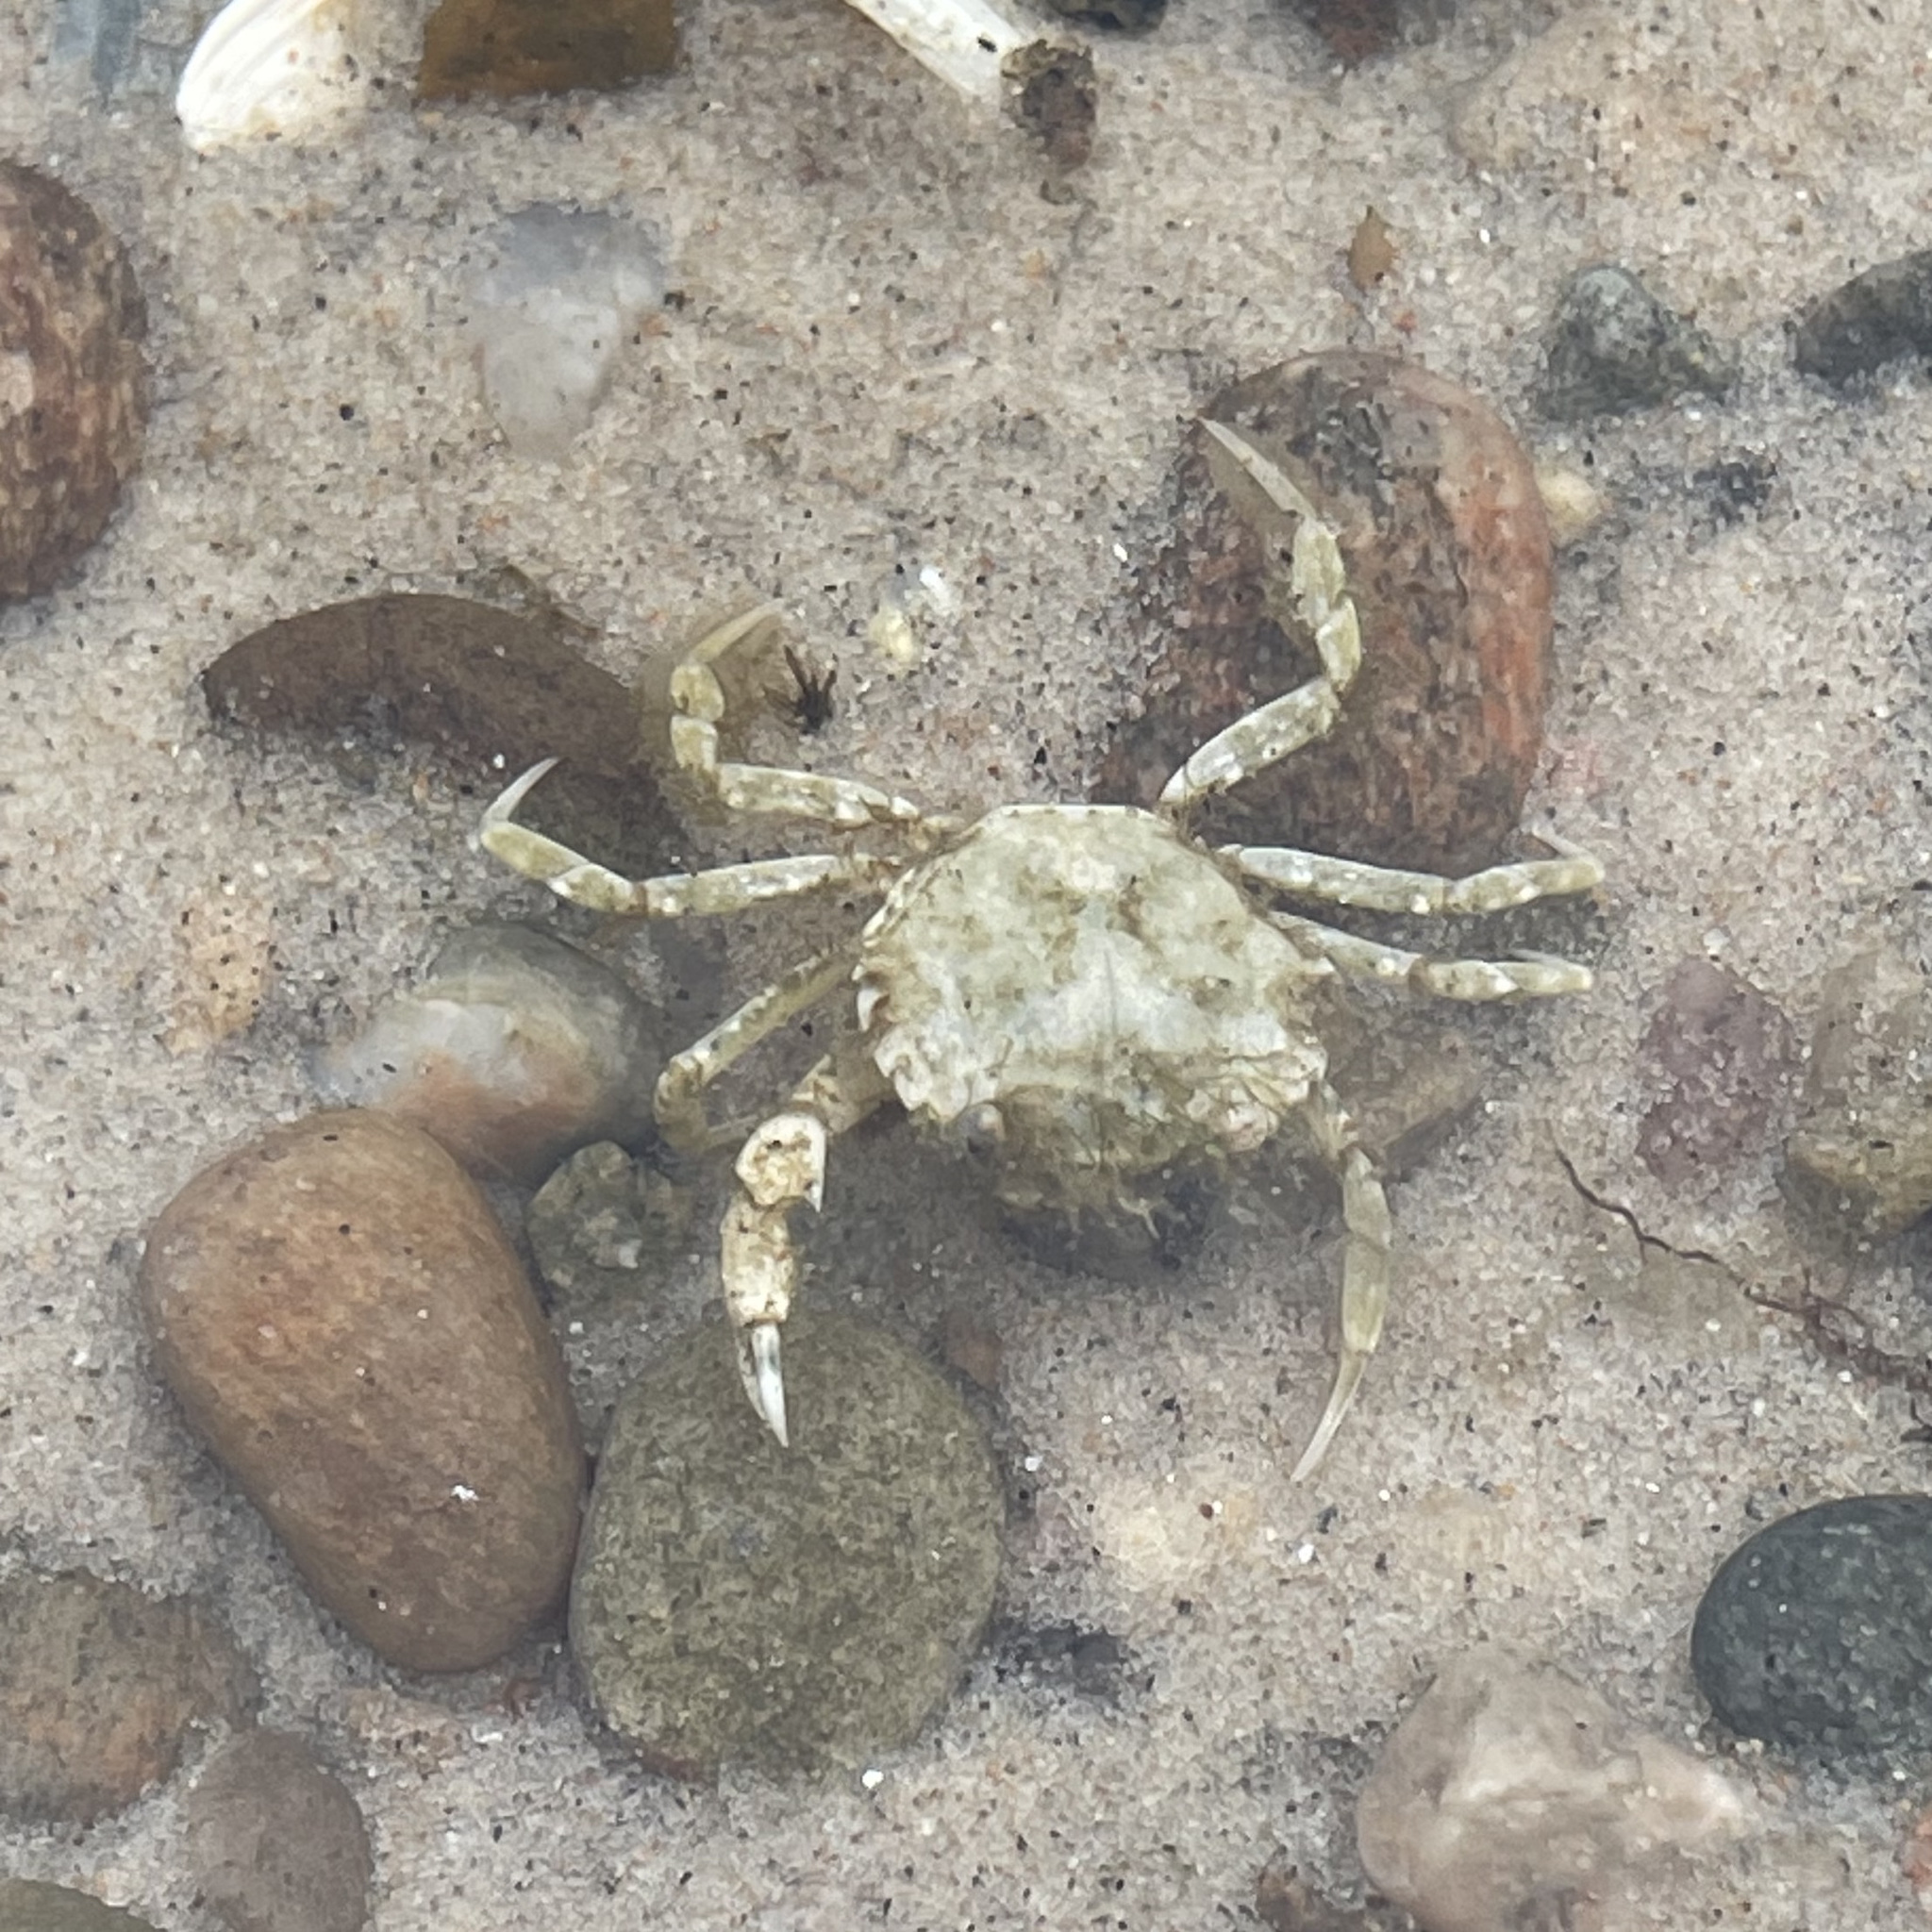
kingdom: Animalia
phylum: Arthropoda
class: Malacostraca
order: Decapoda
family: Carcinidae
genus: Carcinus
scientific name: Carcinus maenas
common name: European green crab
